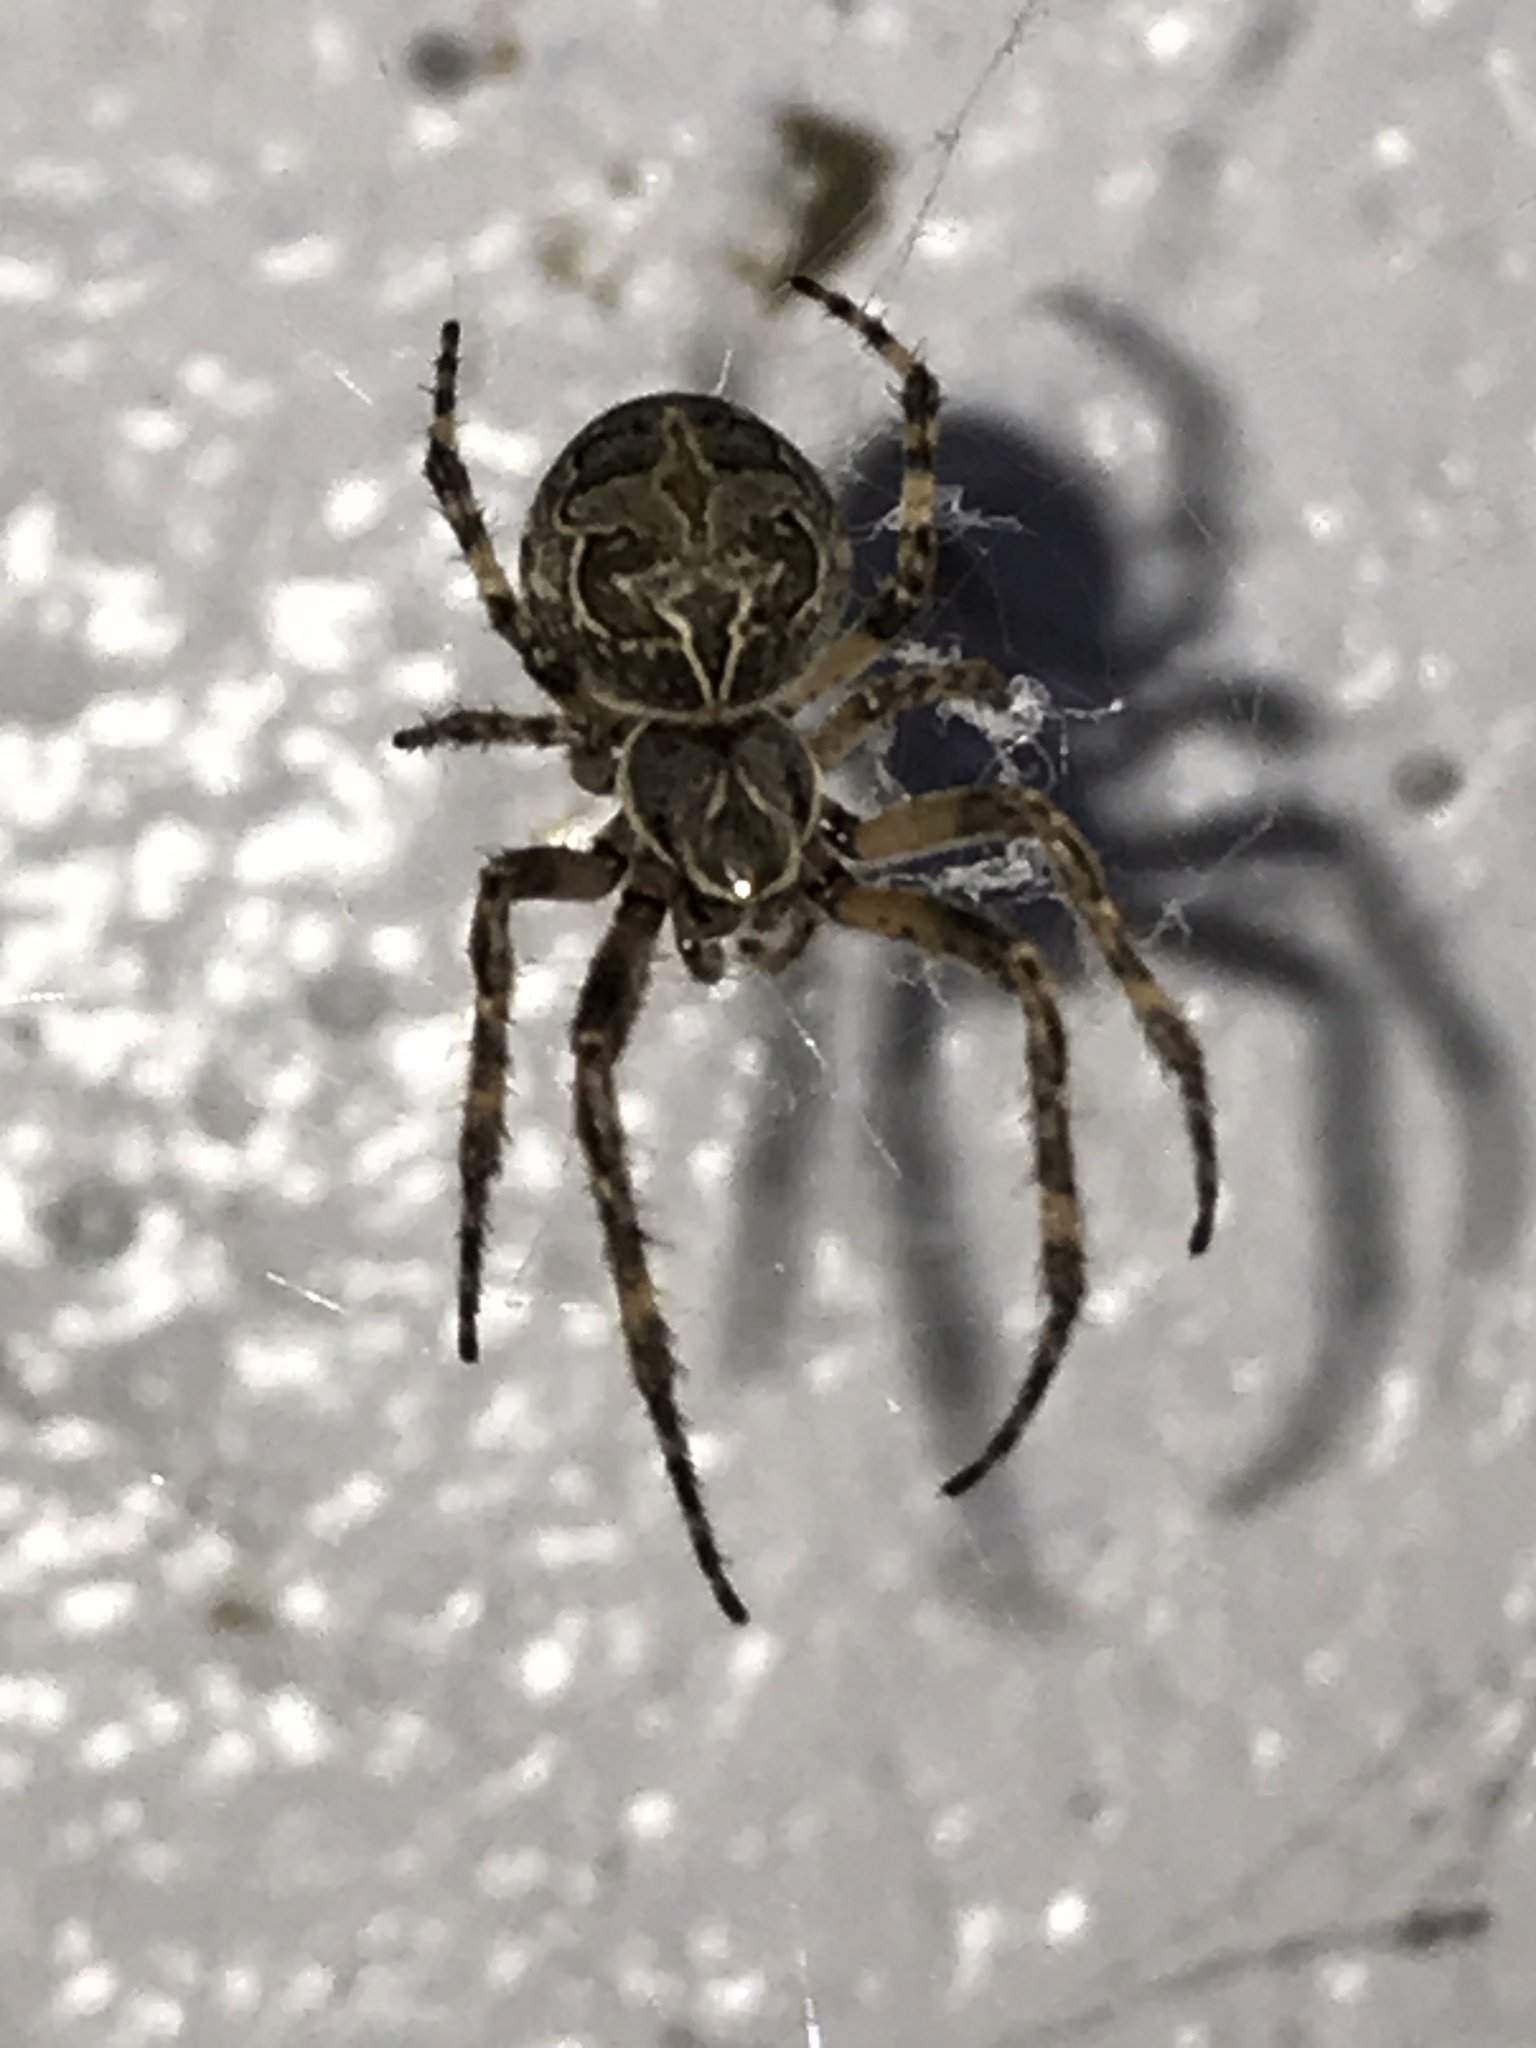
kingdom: Animalia
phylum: Arthropoda
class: Arachnida
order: Araneae
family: Araneidae
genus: Larinioides
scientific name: Larinioides sclopetarius
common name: Bridge orbweaver
